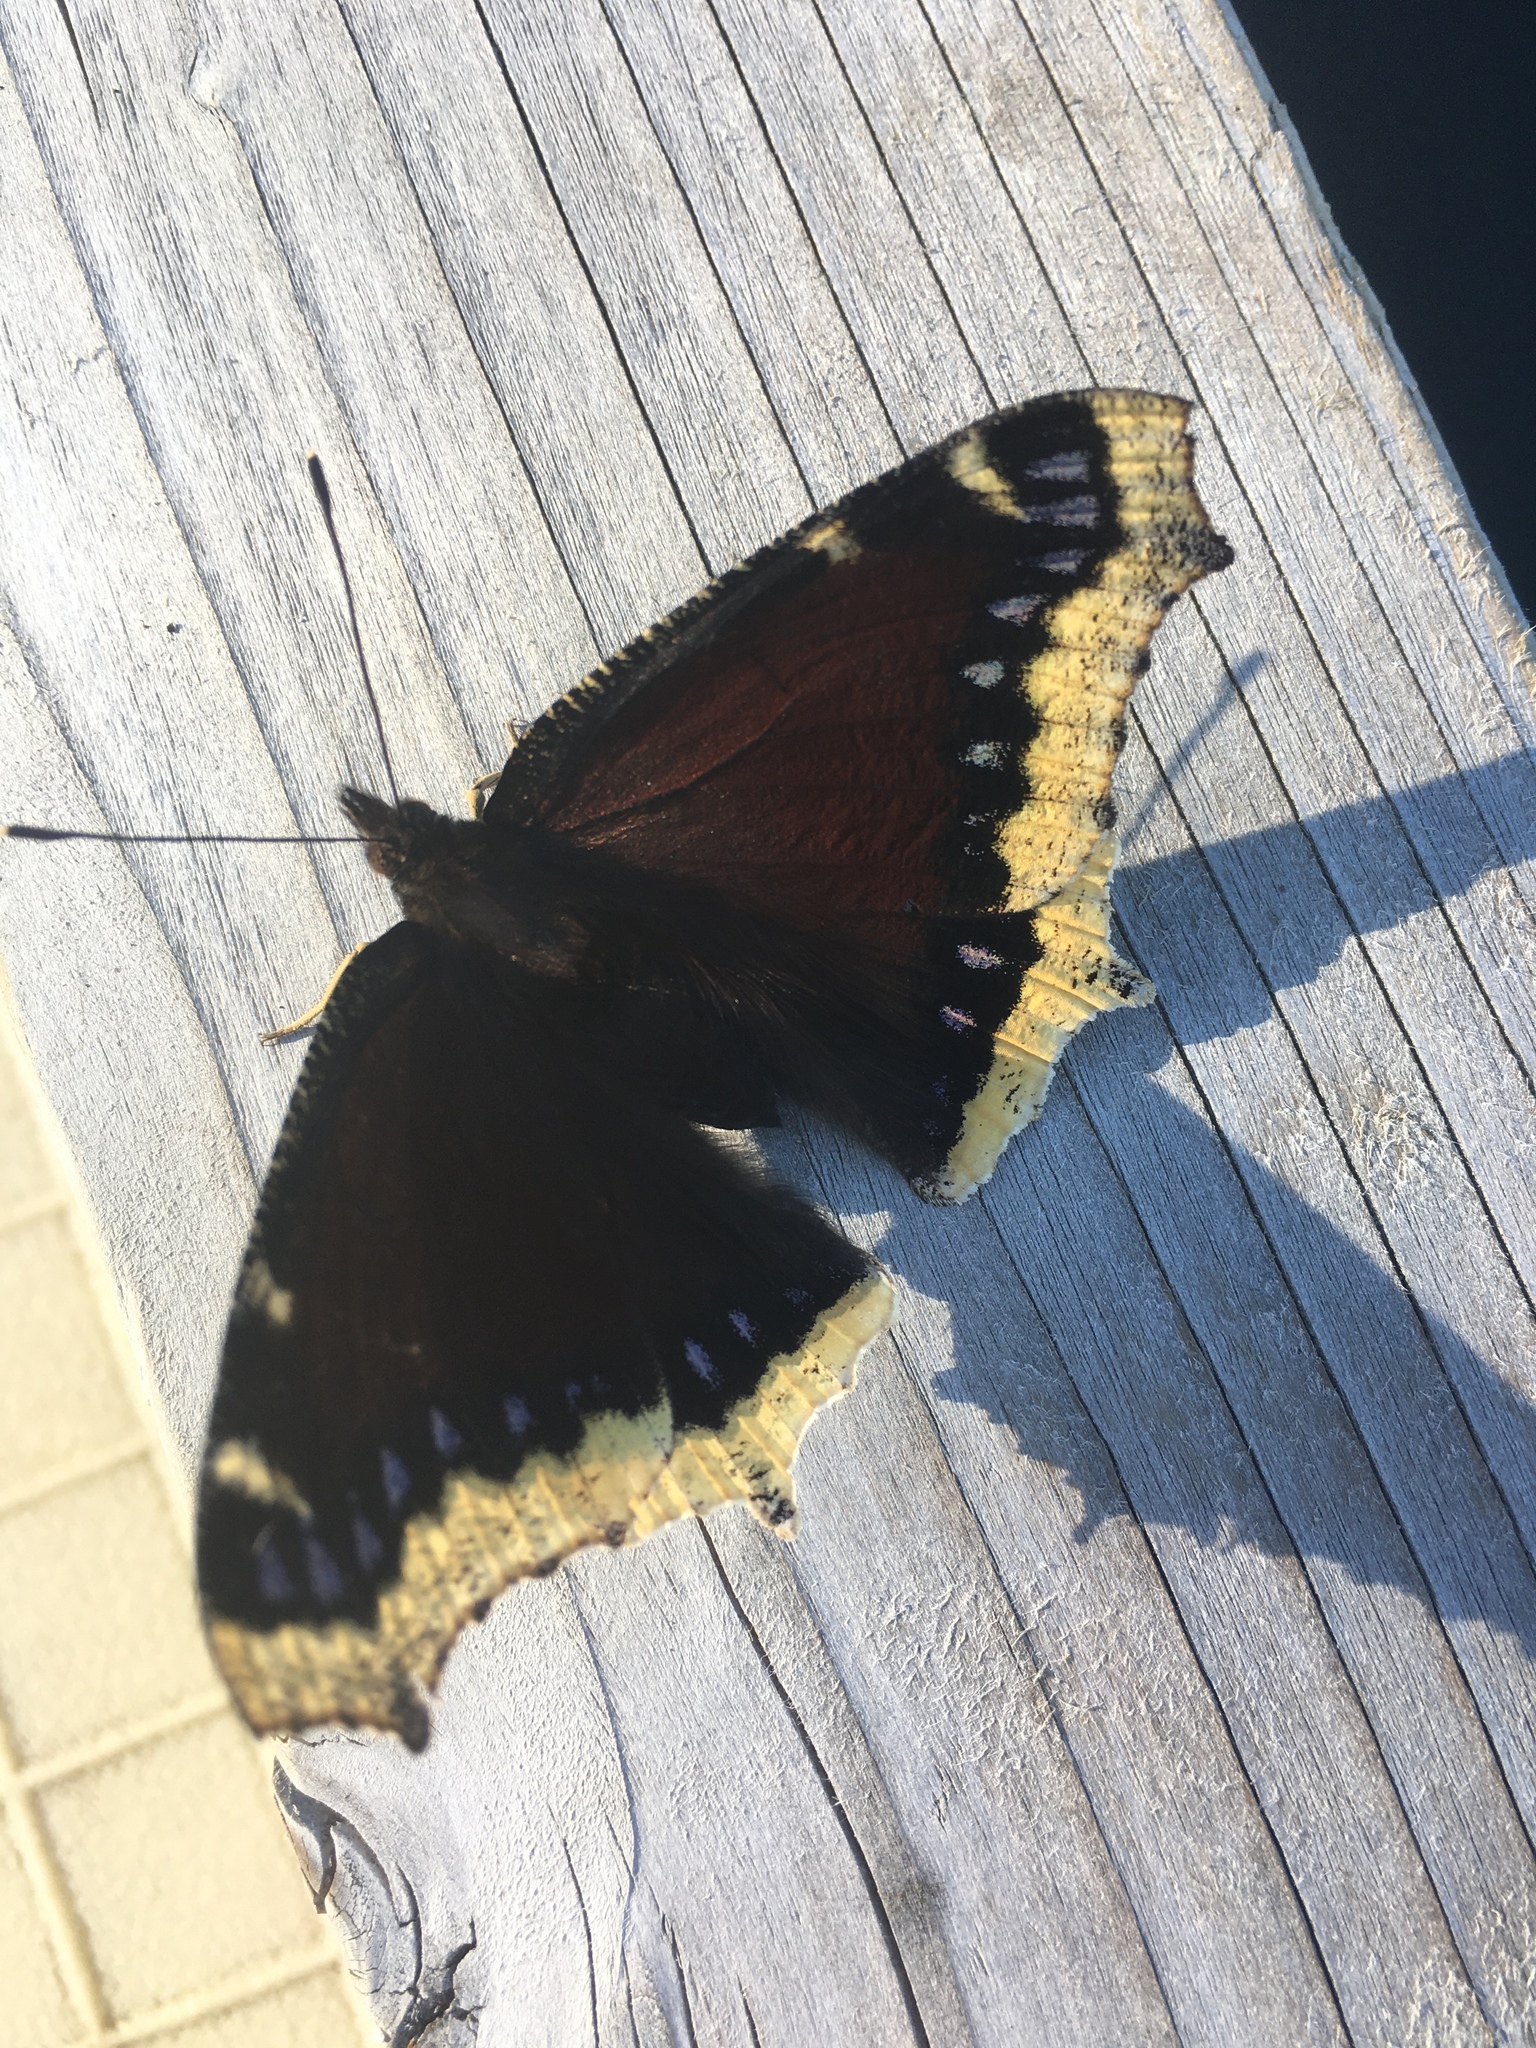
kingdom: Animalia
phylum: Arthropoda
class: Insecta
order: Lepidoptera
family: Nymphalidae
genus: Nymphalis
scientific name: Nymphalis antiopa
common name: Camberwell beauty
